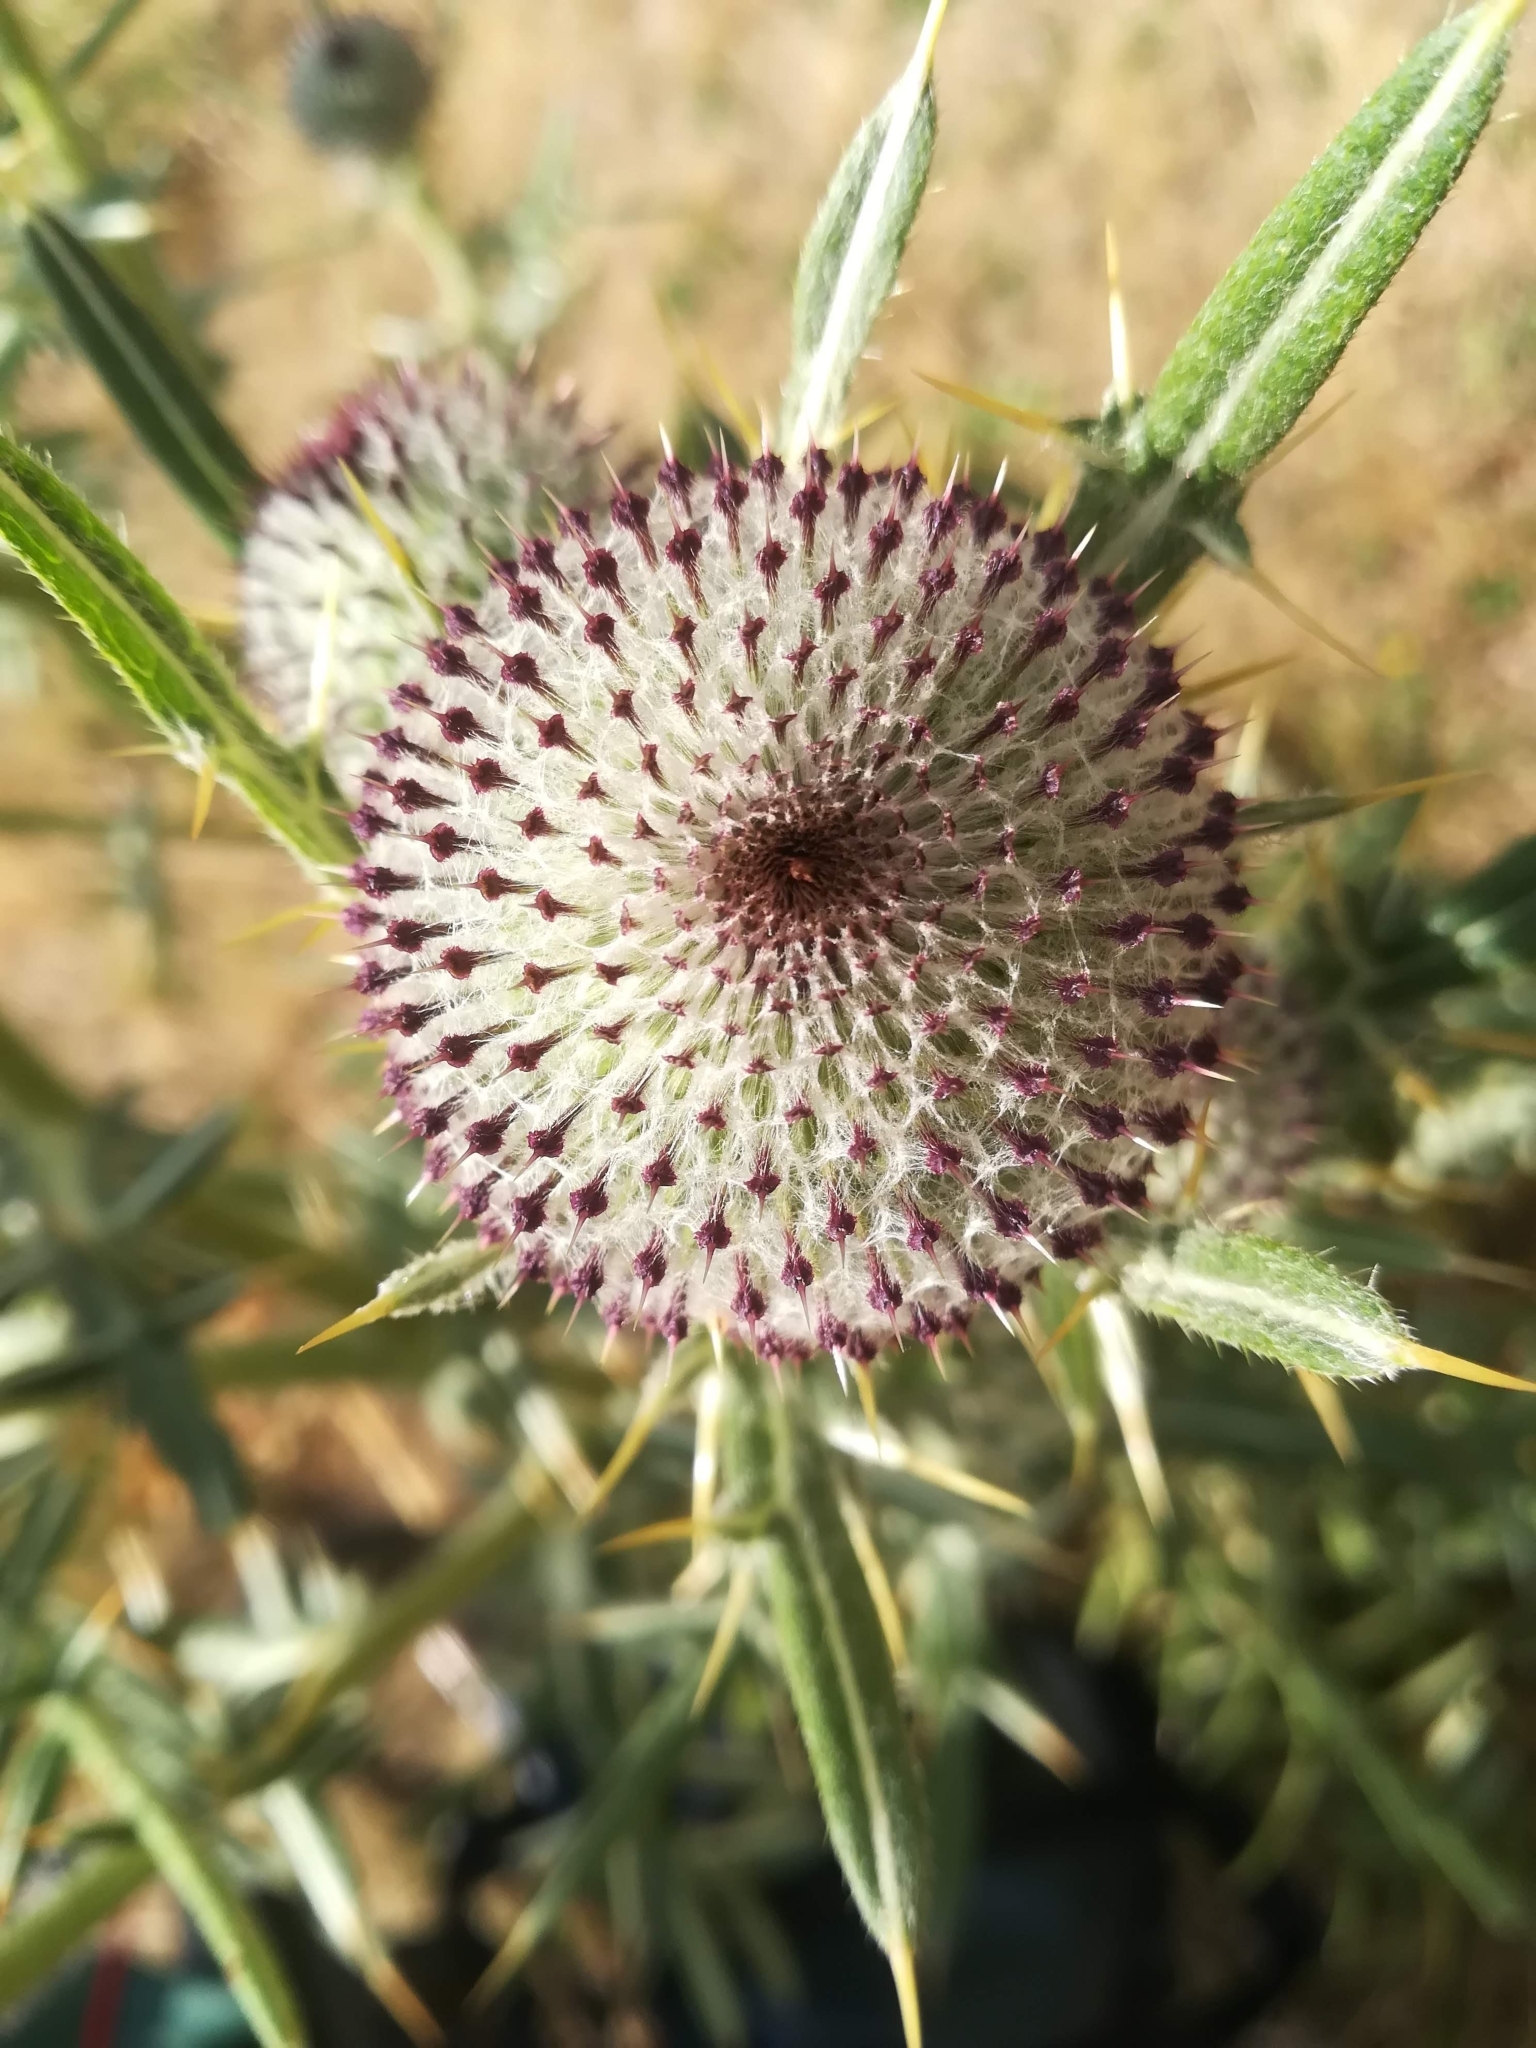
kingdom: Plantae
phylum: Tracheophyta
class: Magnoliopsida
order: Asterales
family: Asteraceae
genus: Lophiolepis
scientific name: Lophiolepis eriophora
